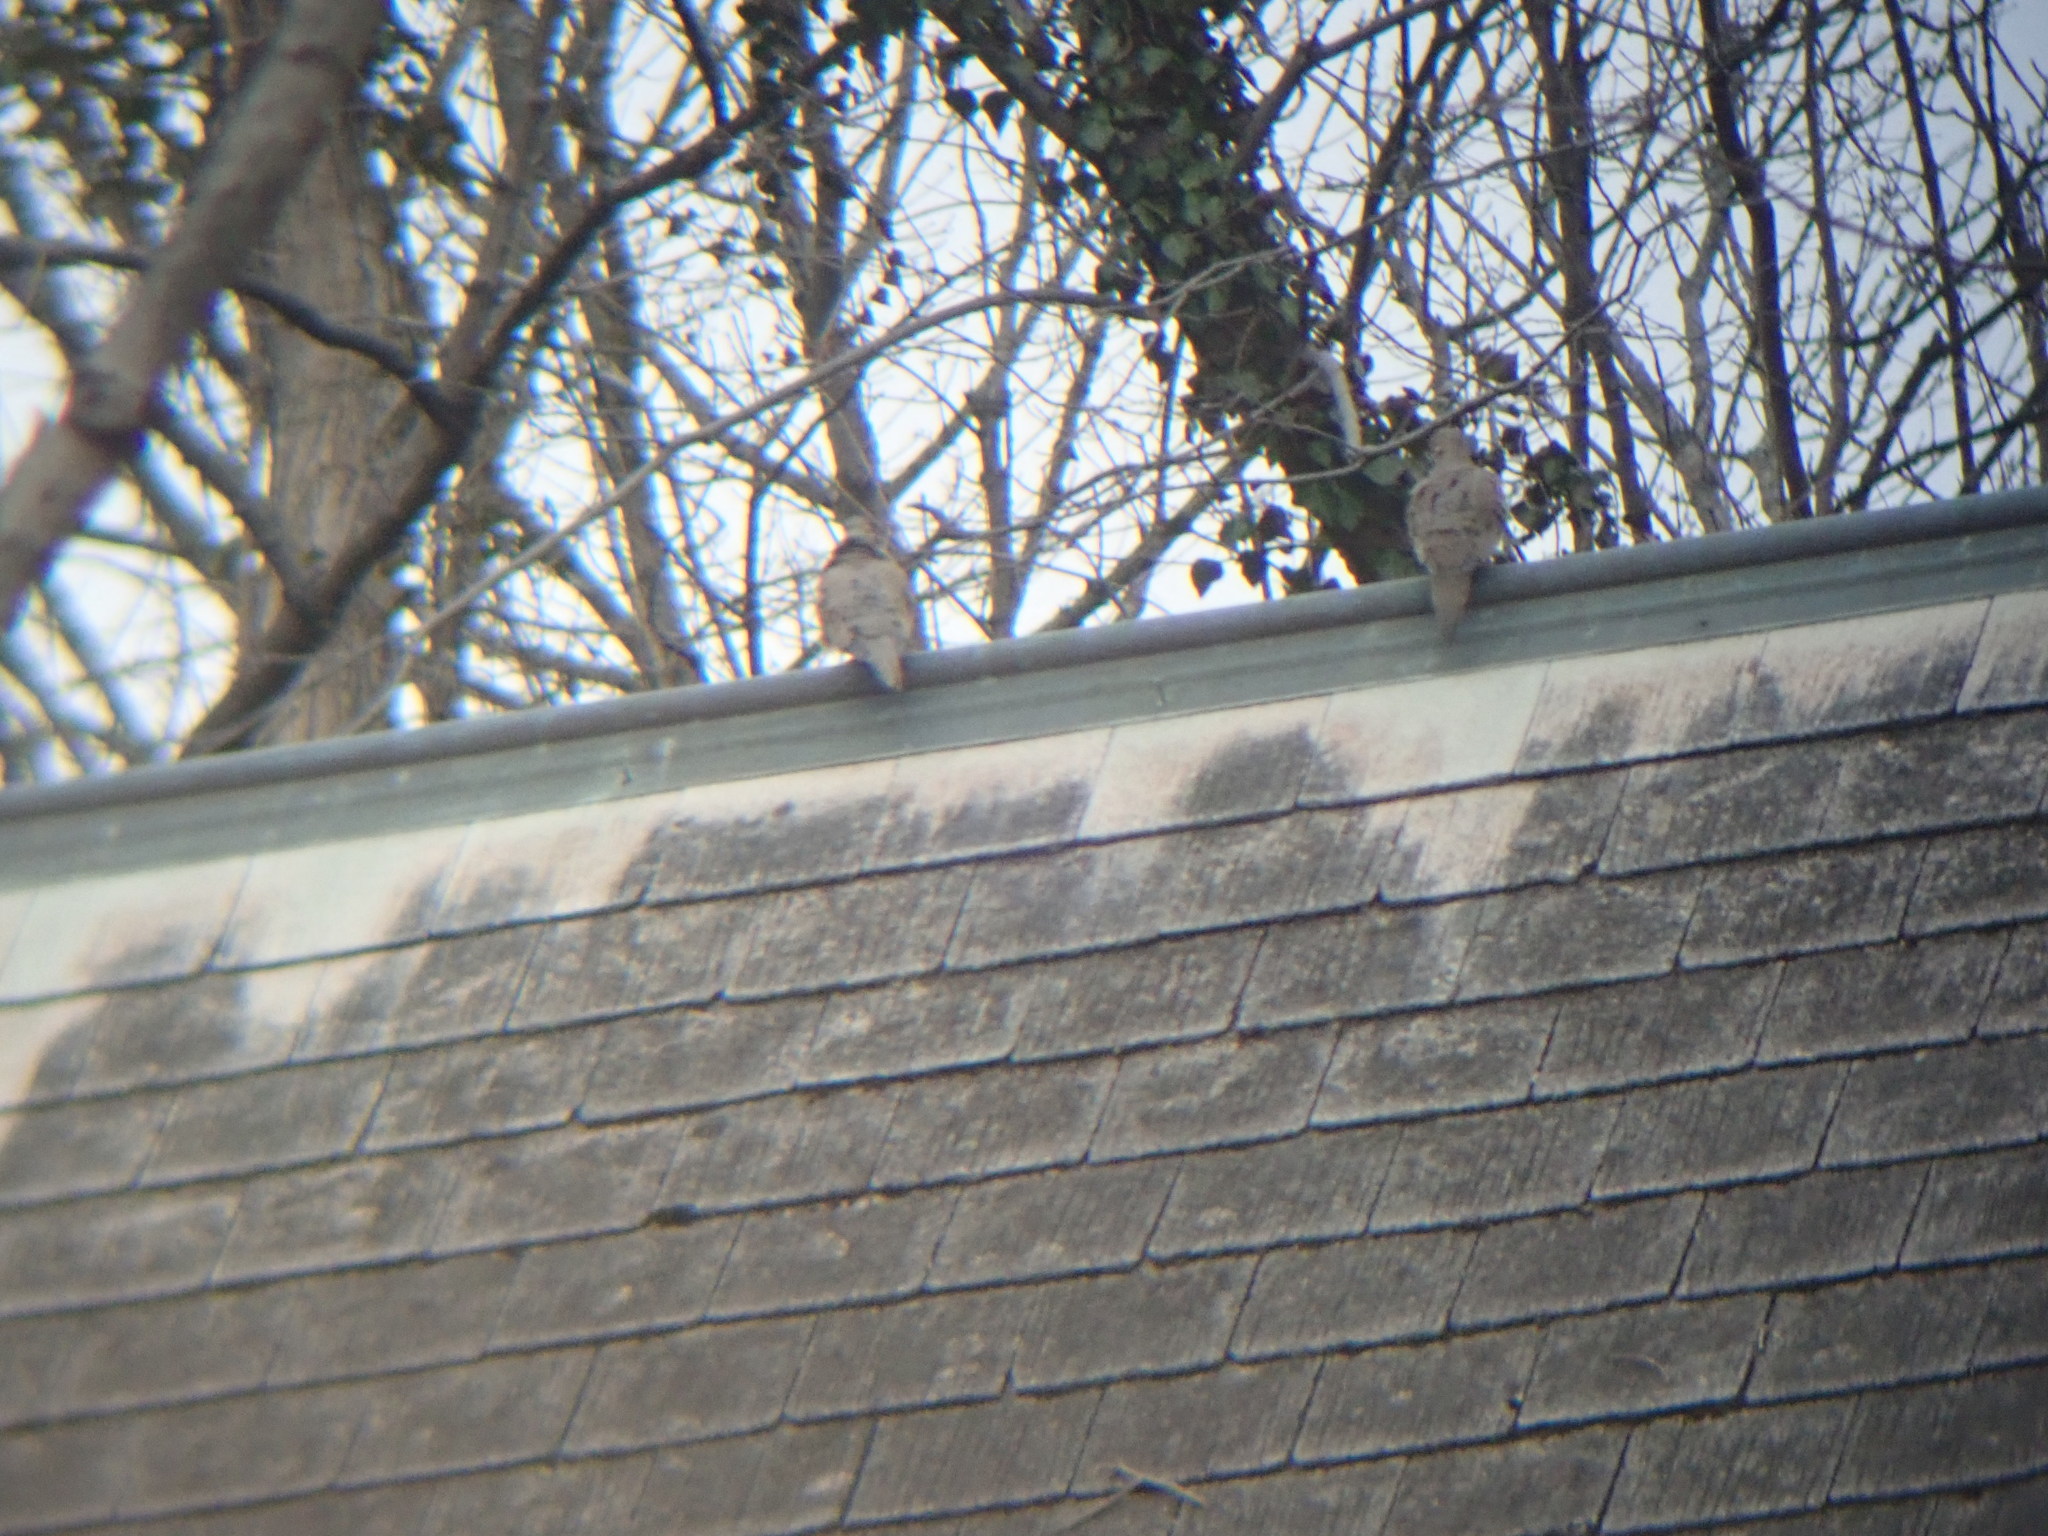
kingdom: Animalia
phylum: Chordata
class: Aves
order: Columbiformes
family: Columbidae
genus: Zenaida
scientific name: Zenaida macroura
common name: Mourning dove
